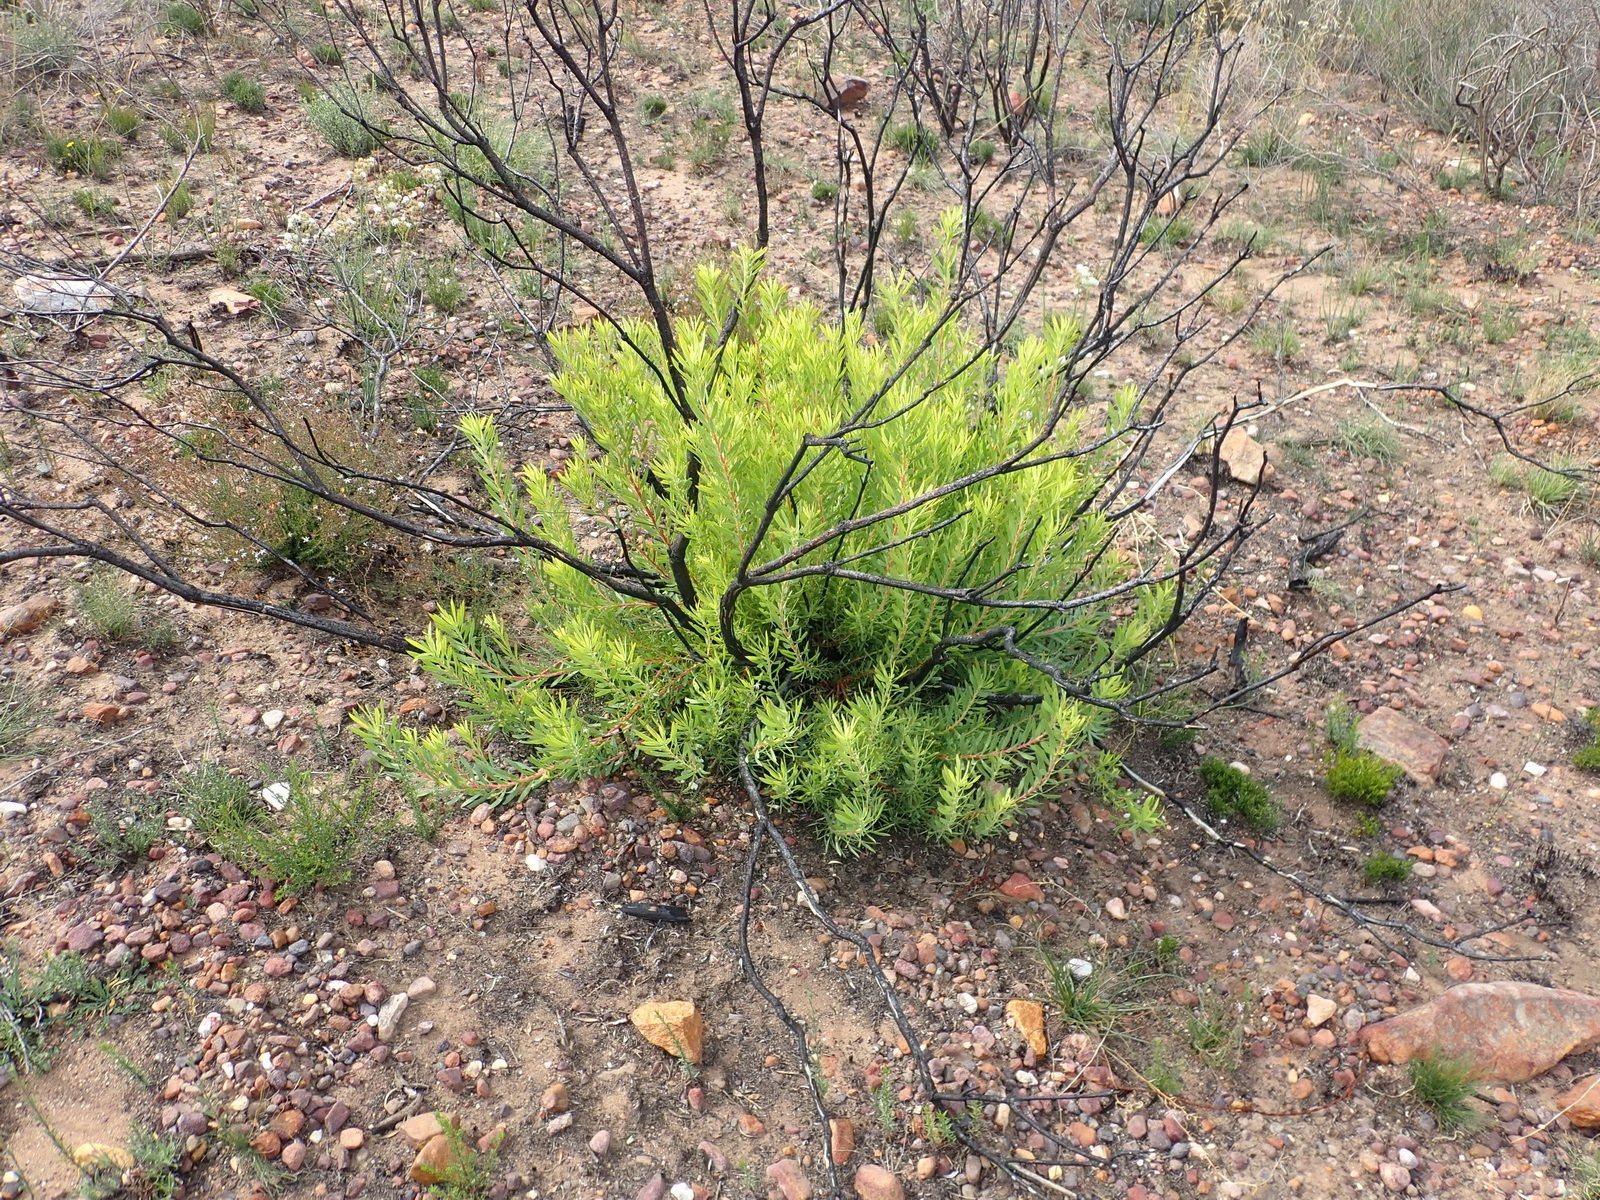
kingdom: Plantae
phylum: Tracheophyta
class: Magnoliopsida
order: Proteales
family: Proteaceae
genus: Leucadendron
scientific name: Leucadendron salignum
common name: Common sunshine conebush
